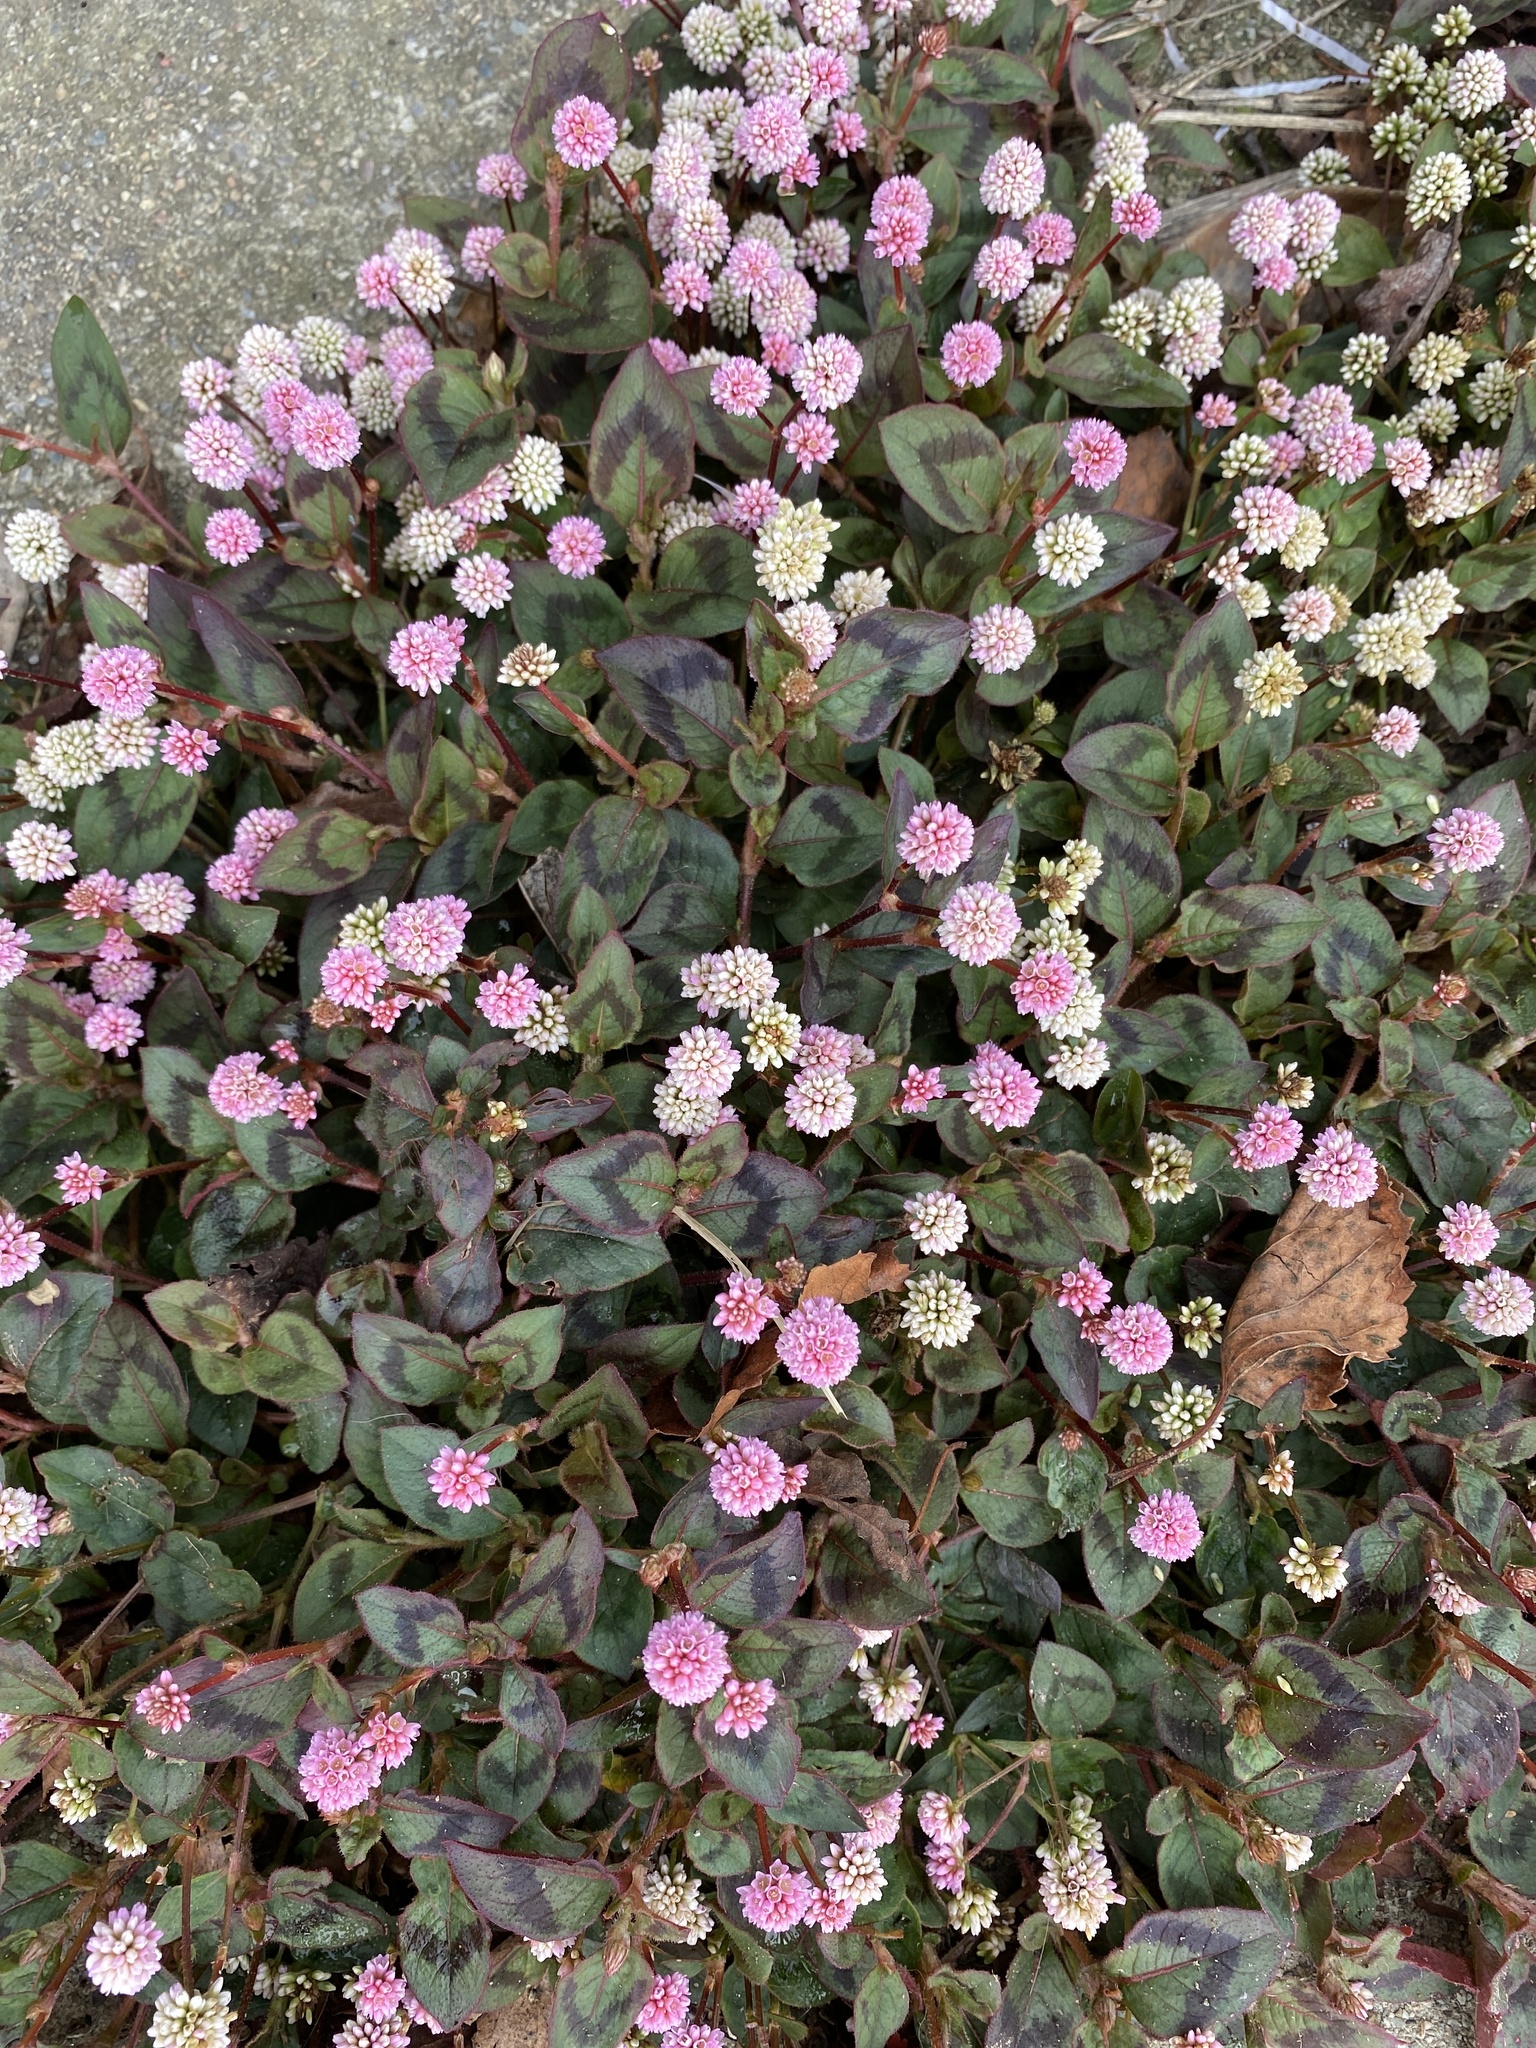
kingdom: Plantae
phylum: Tracheophyta
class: Magnoliopsida
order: Caryophyllales
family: Polygonaceae
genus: Persicaria
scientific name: Persicaria capitata
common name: Pinkhead smartweed
